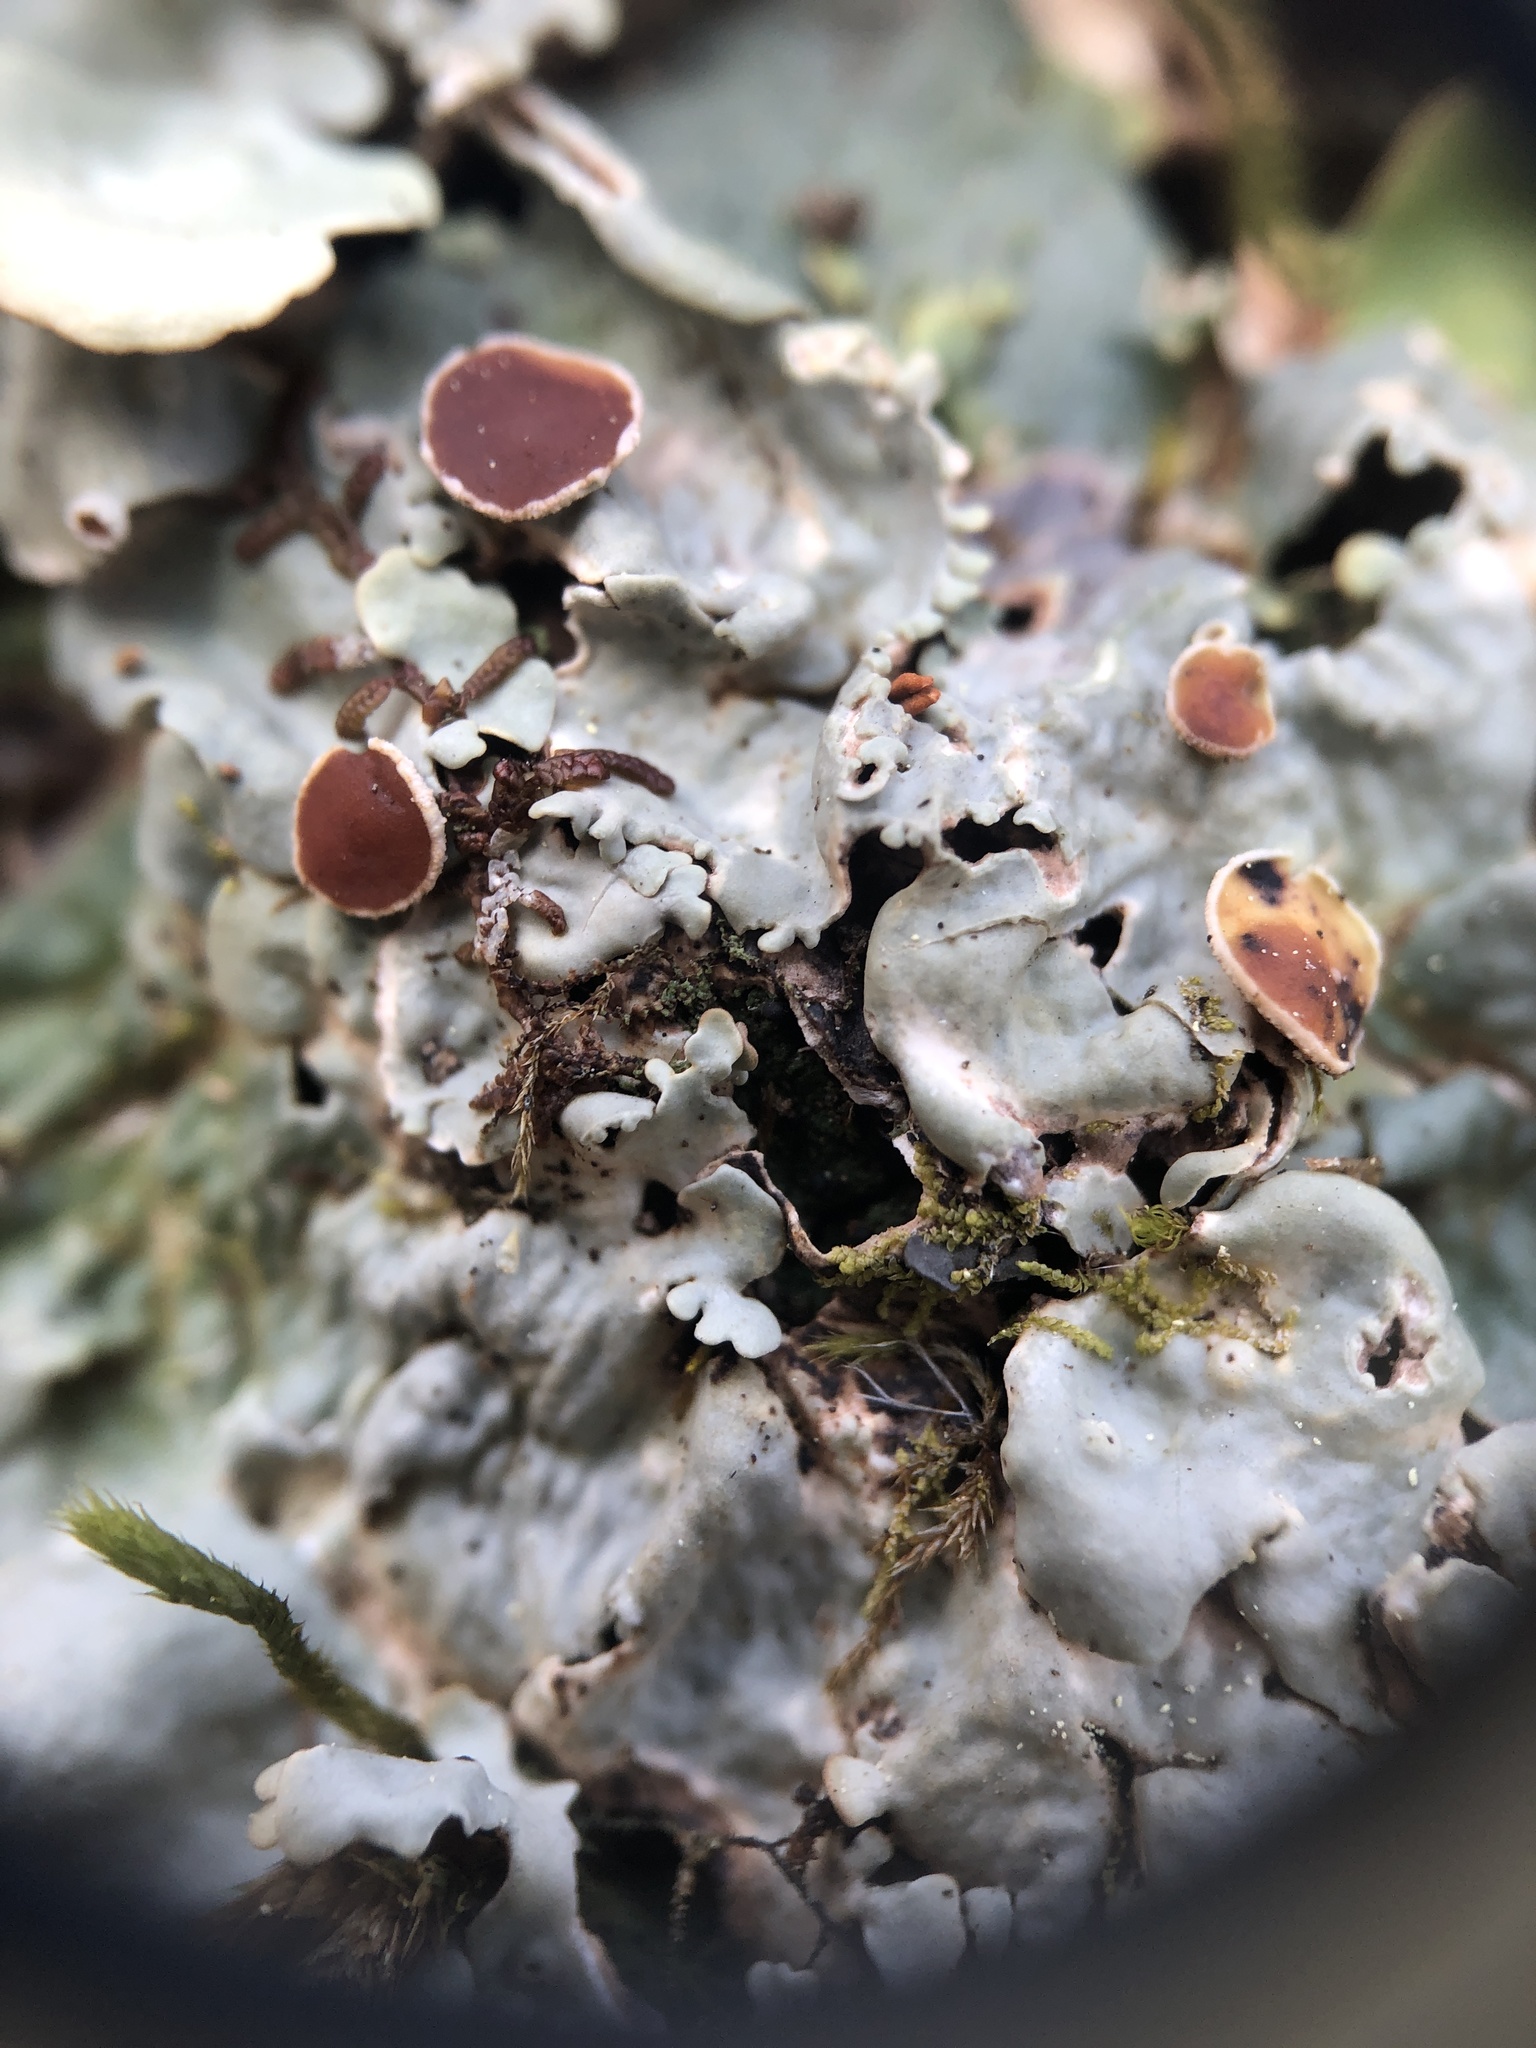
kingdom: Fungi
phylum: Ascomycota
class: Lecanoromycetes
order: Peltigerales
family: Lobariaceae
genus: Ricasolia
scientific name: Ricasolia quercizans
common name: Smooth lungwort
